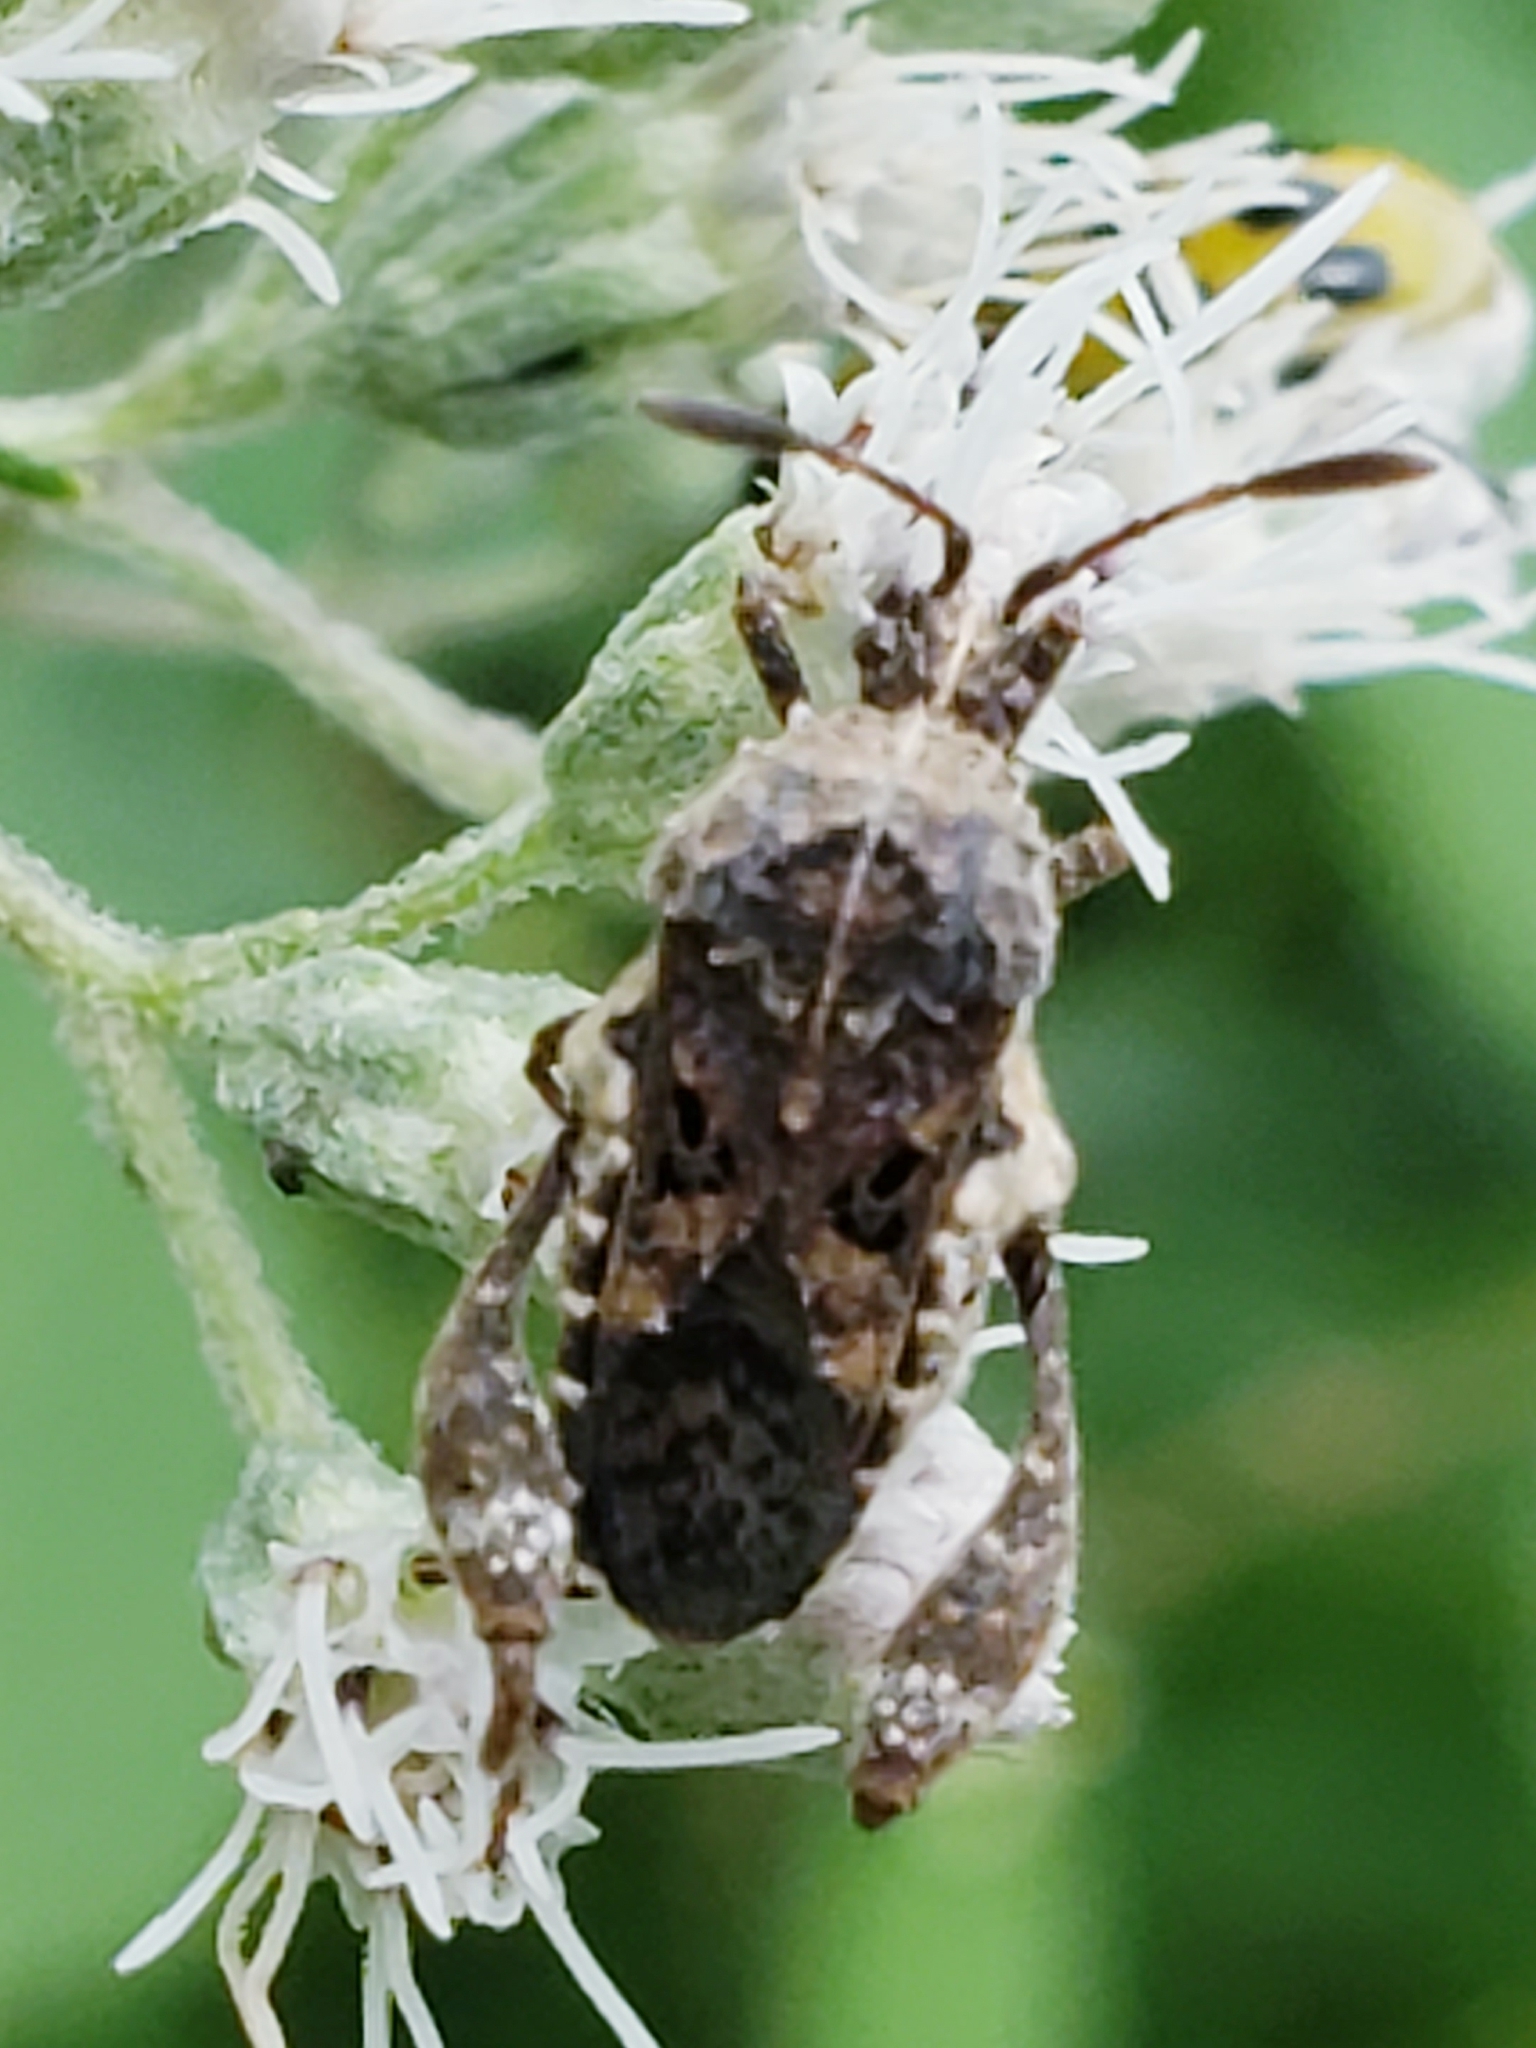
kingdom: Animalia
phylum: Arthropoda
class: Insecta
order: Hemiptera
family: Coreidae
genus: Merocoris
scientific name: Merocoris distinctus
